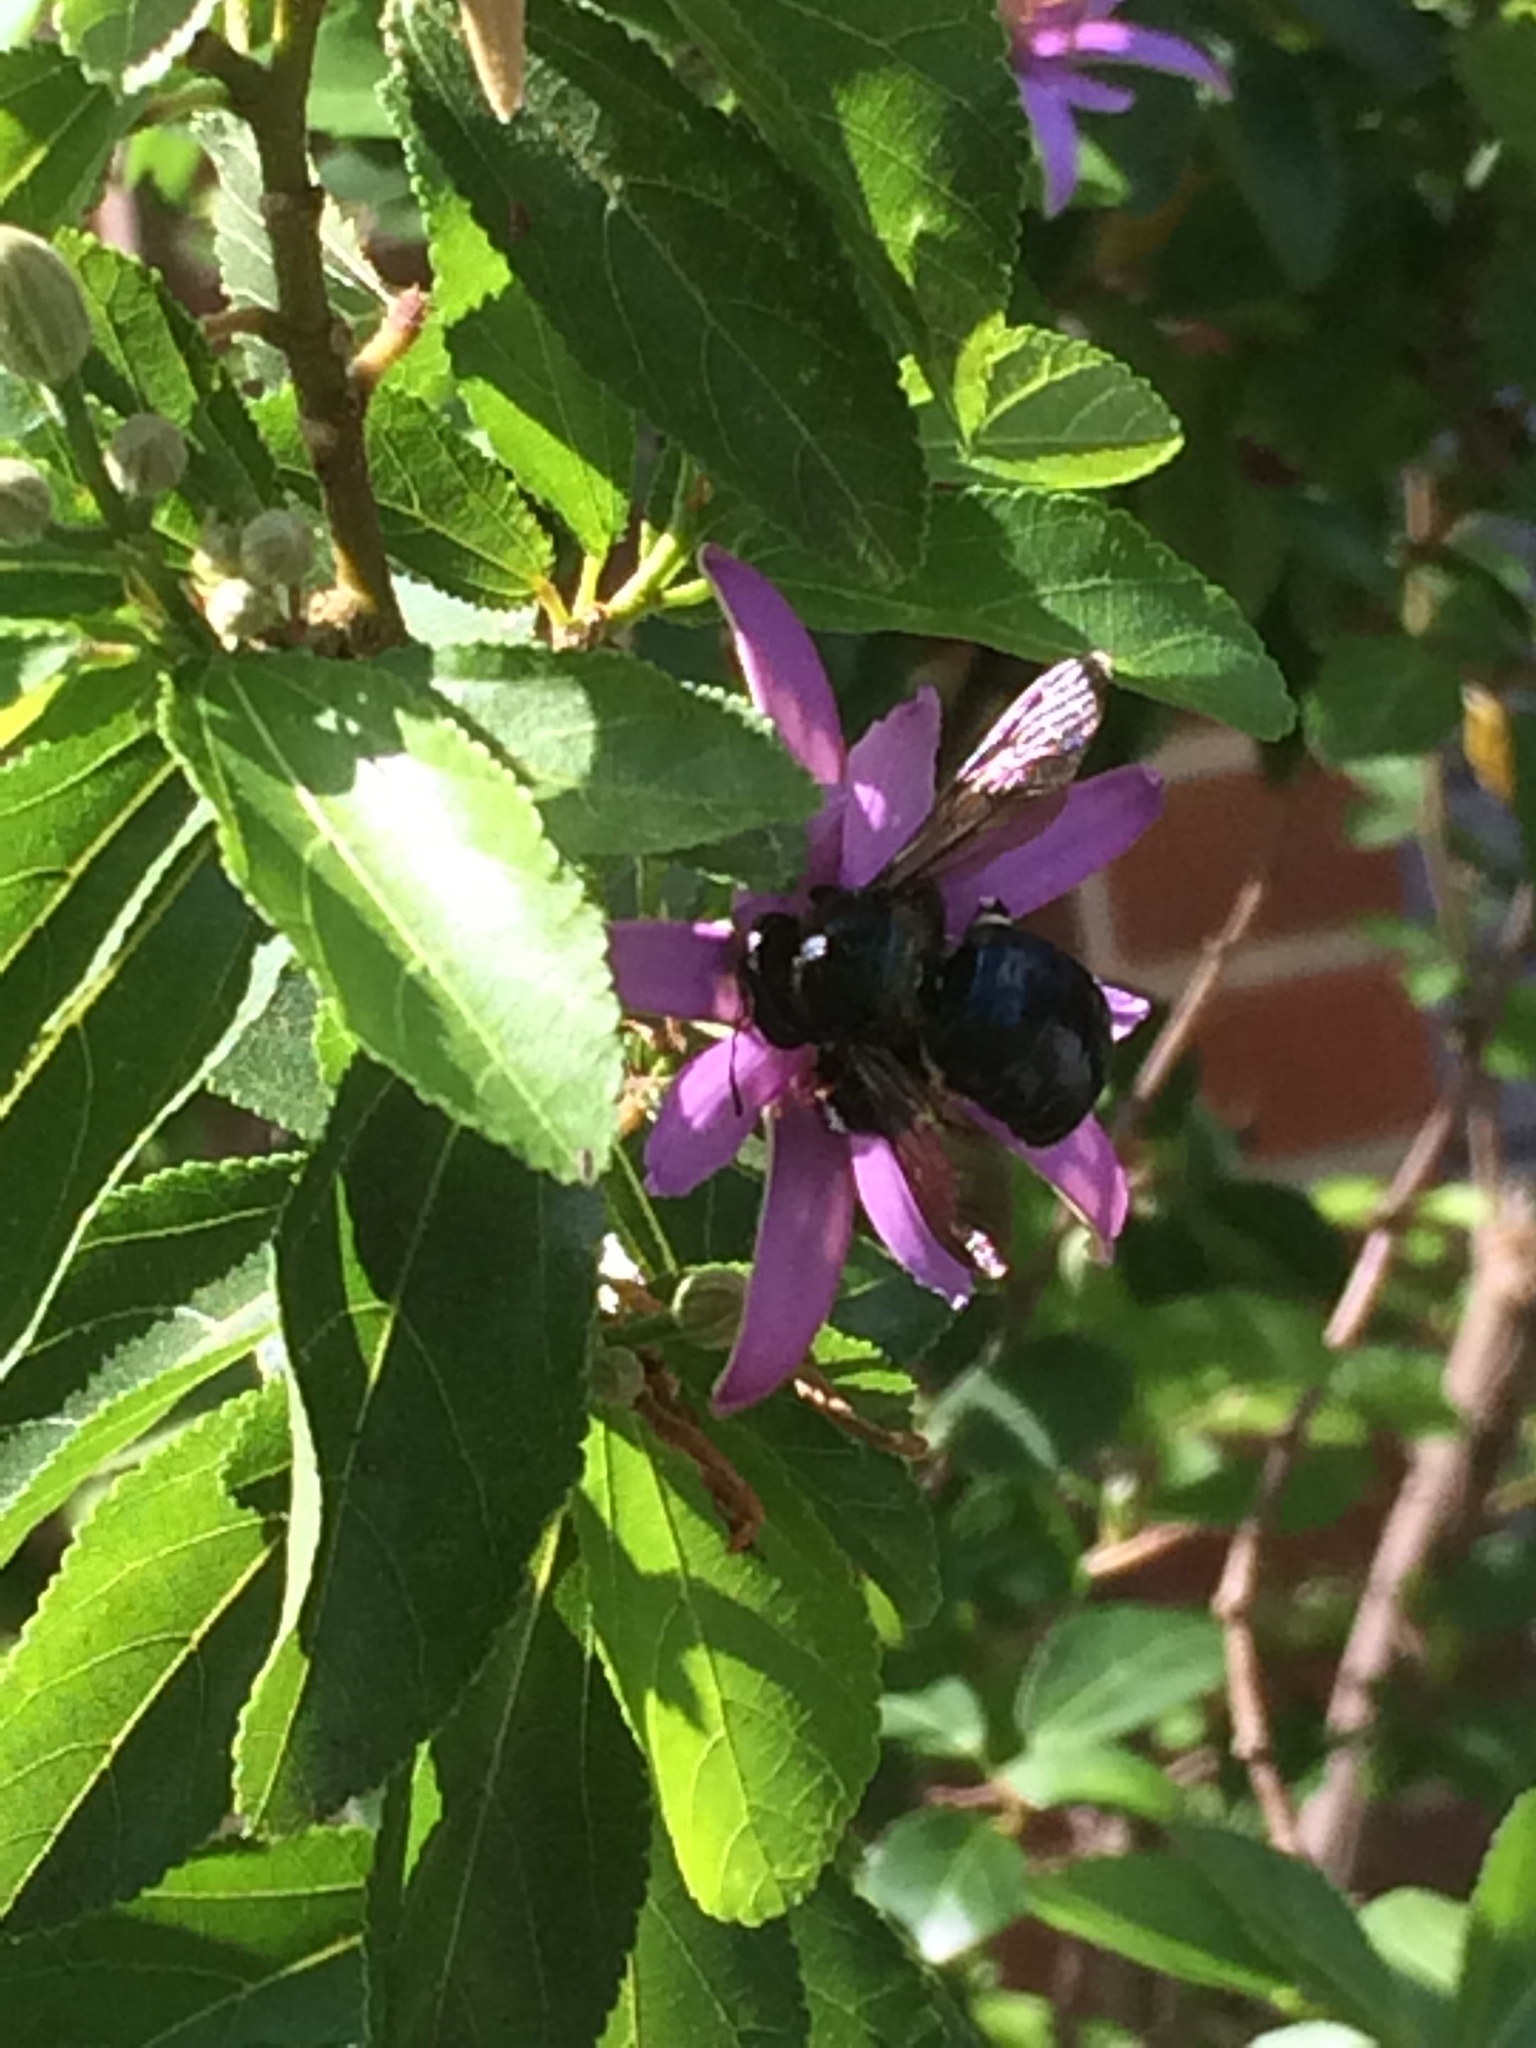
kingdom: Animalia
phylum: Arthropoda
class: Insecta
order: Hymenoptera
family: Apidae
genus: Xylocopa
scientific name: Xylocopa micans
